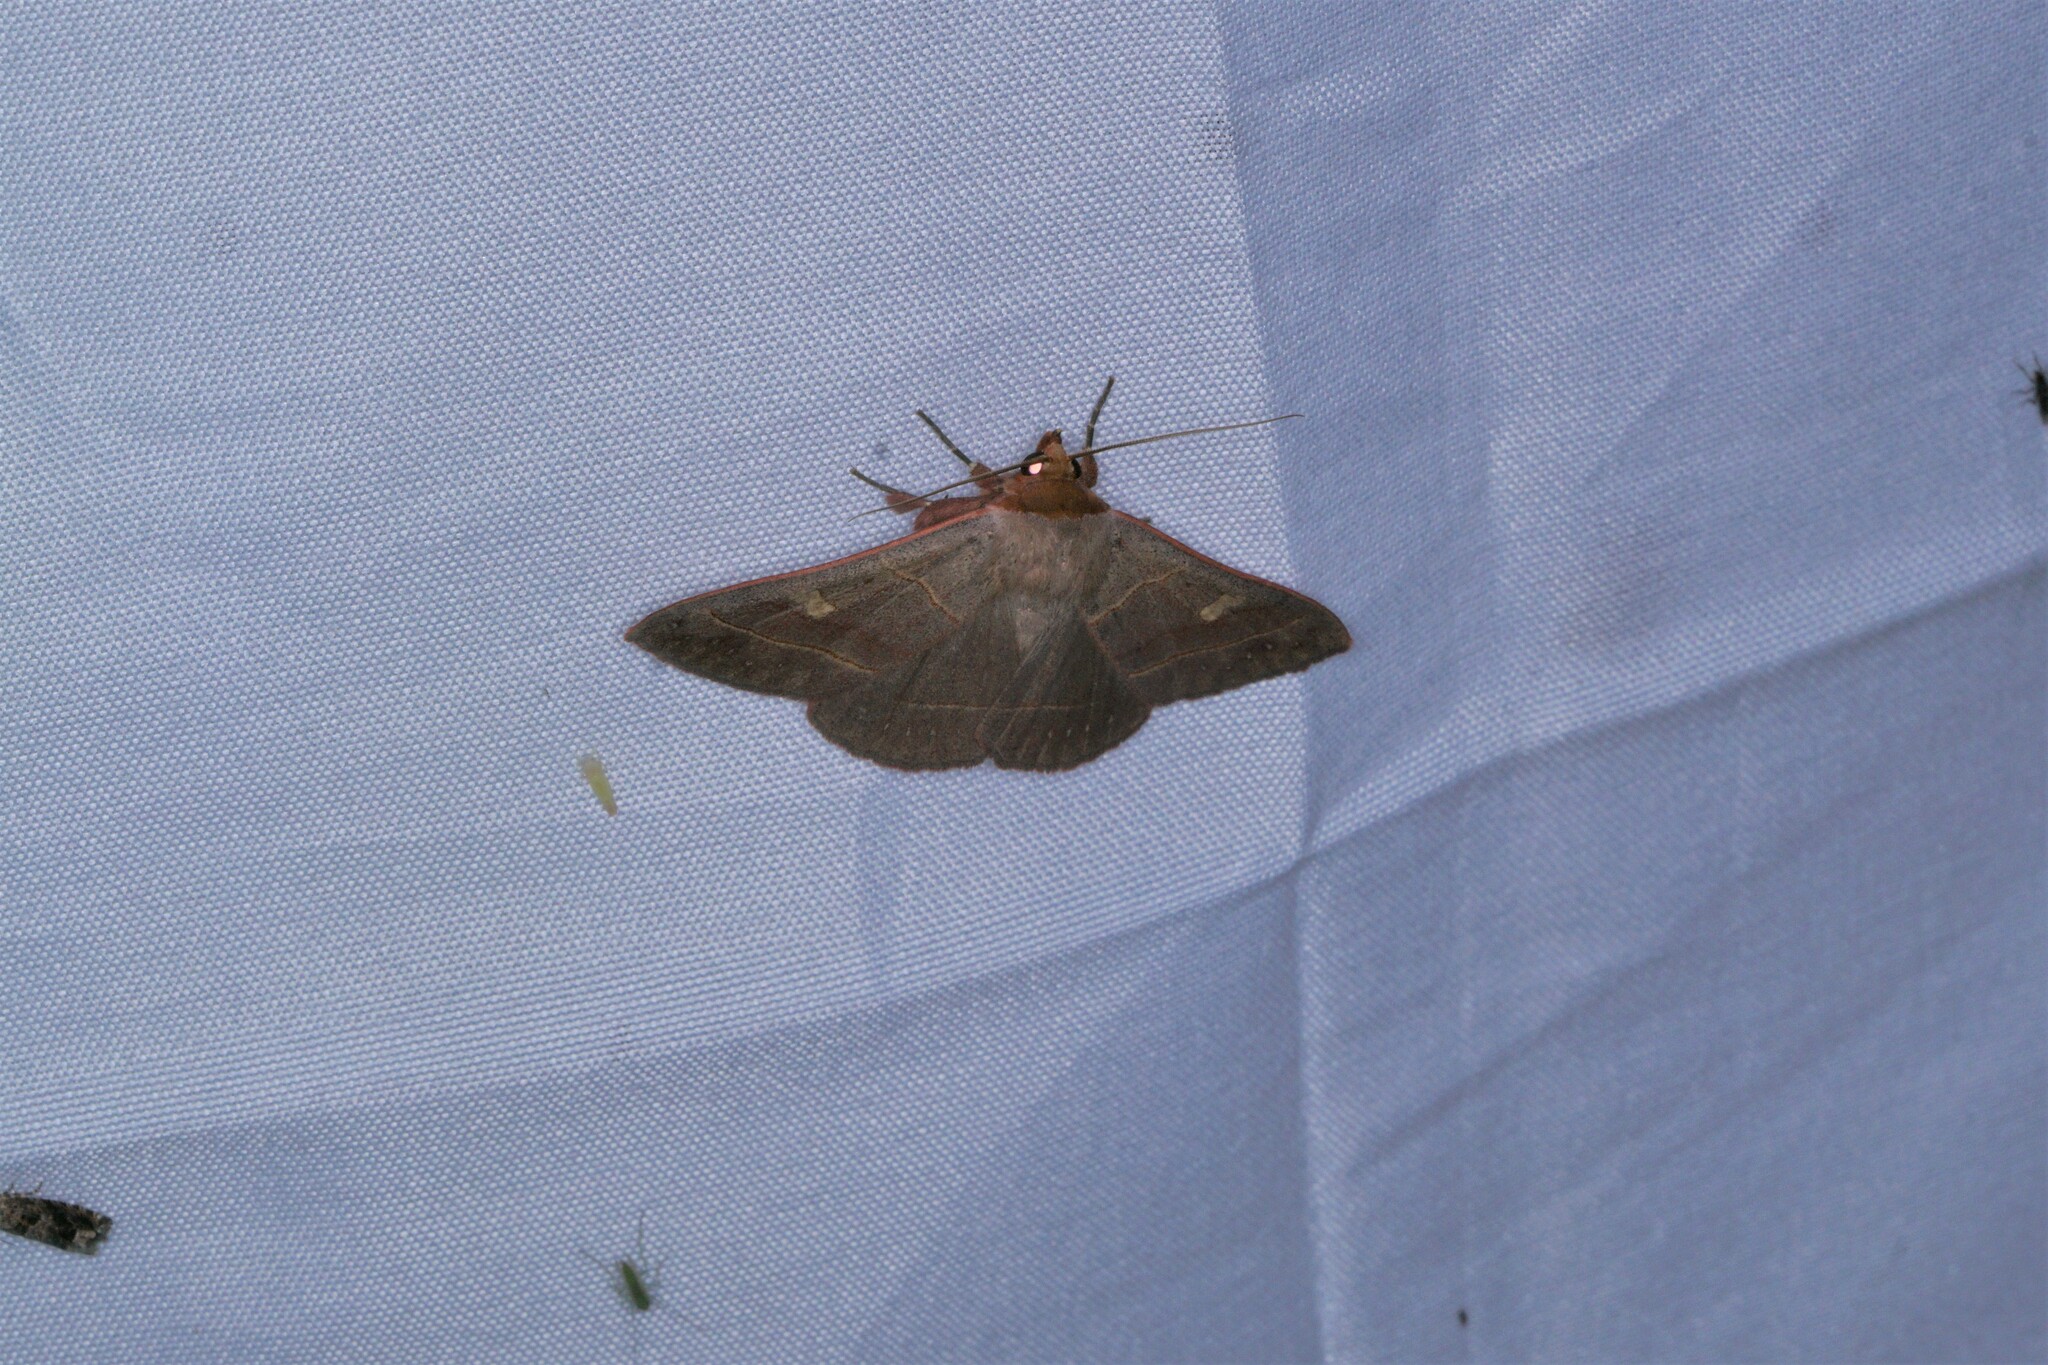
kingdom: Animalia
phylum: Arthropoda
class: Insecta
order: Lepidoptera
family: Erebidae
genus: Panopoda
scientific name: Panopoda rufimargo
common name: Red-lined panopoda moth
